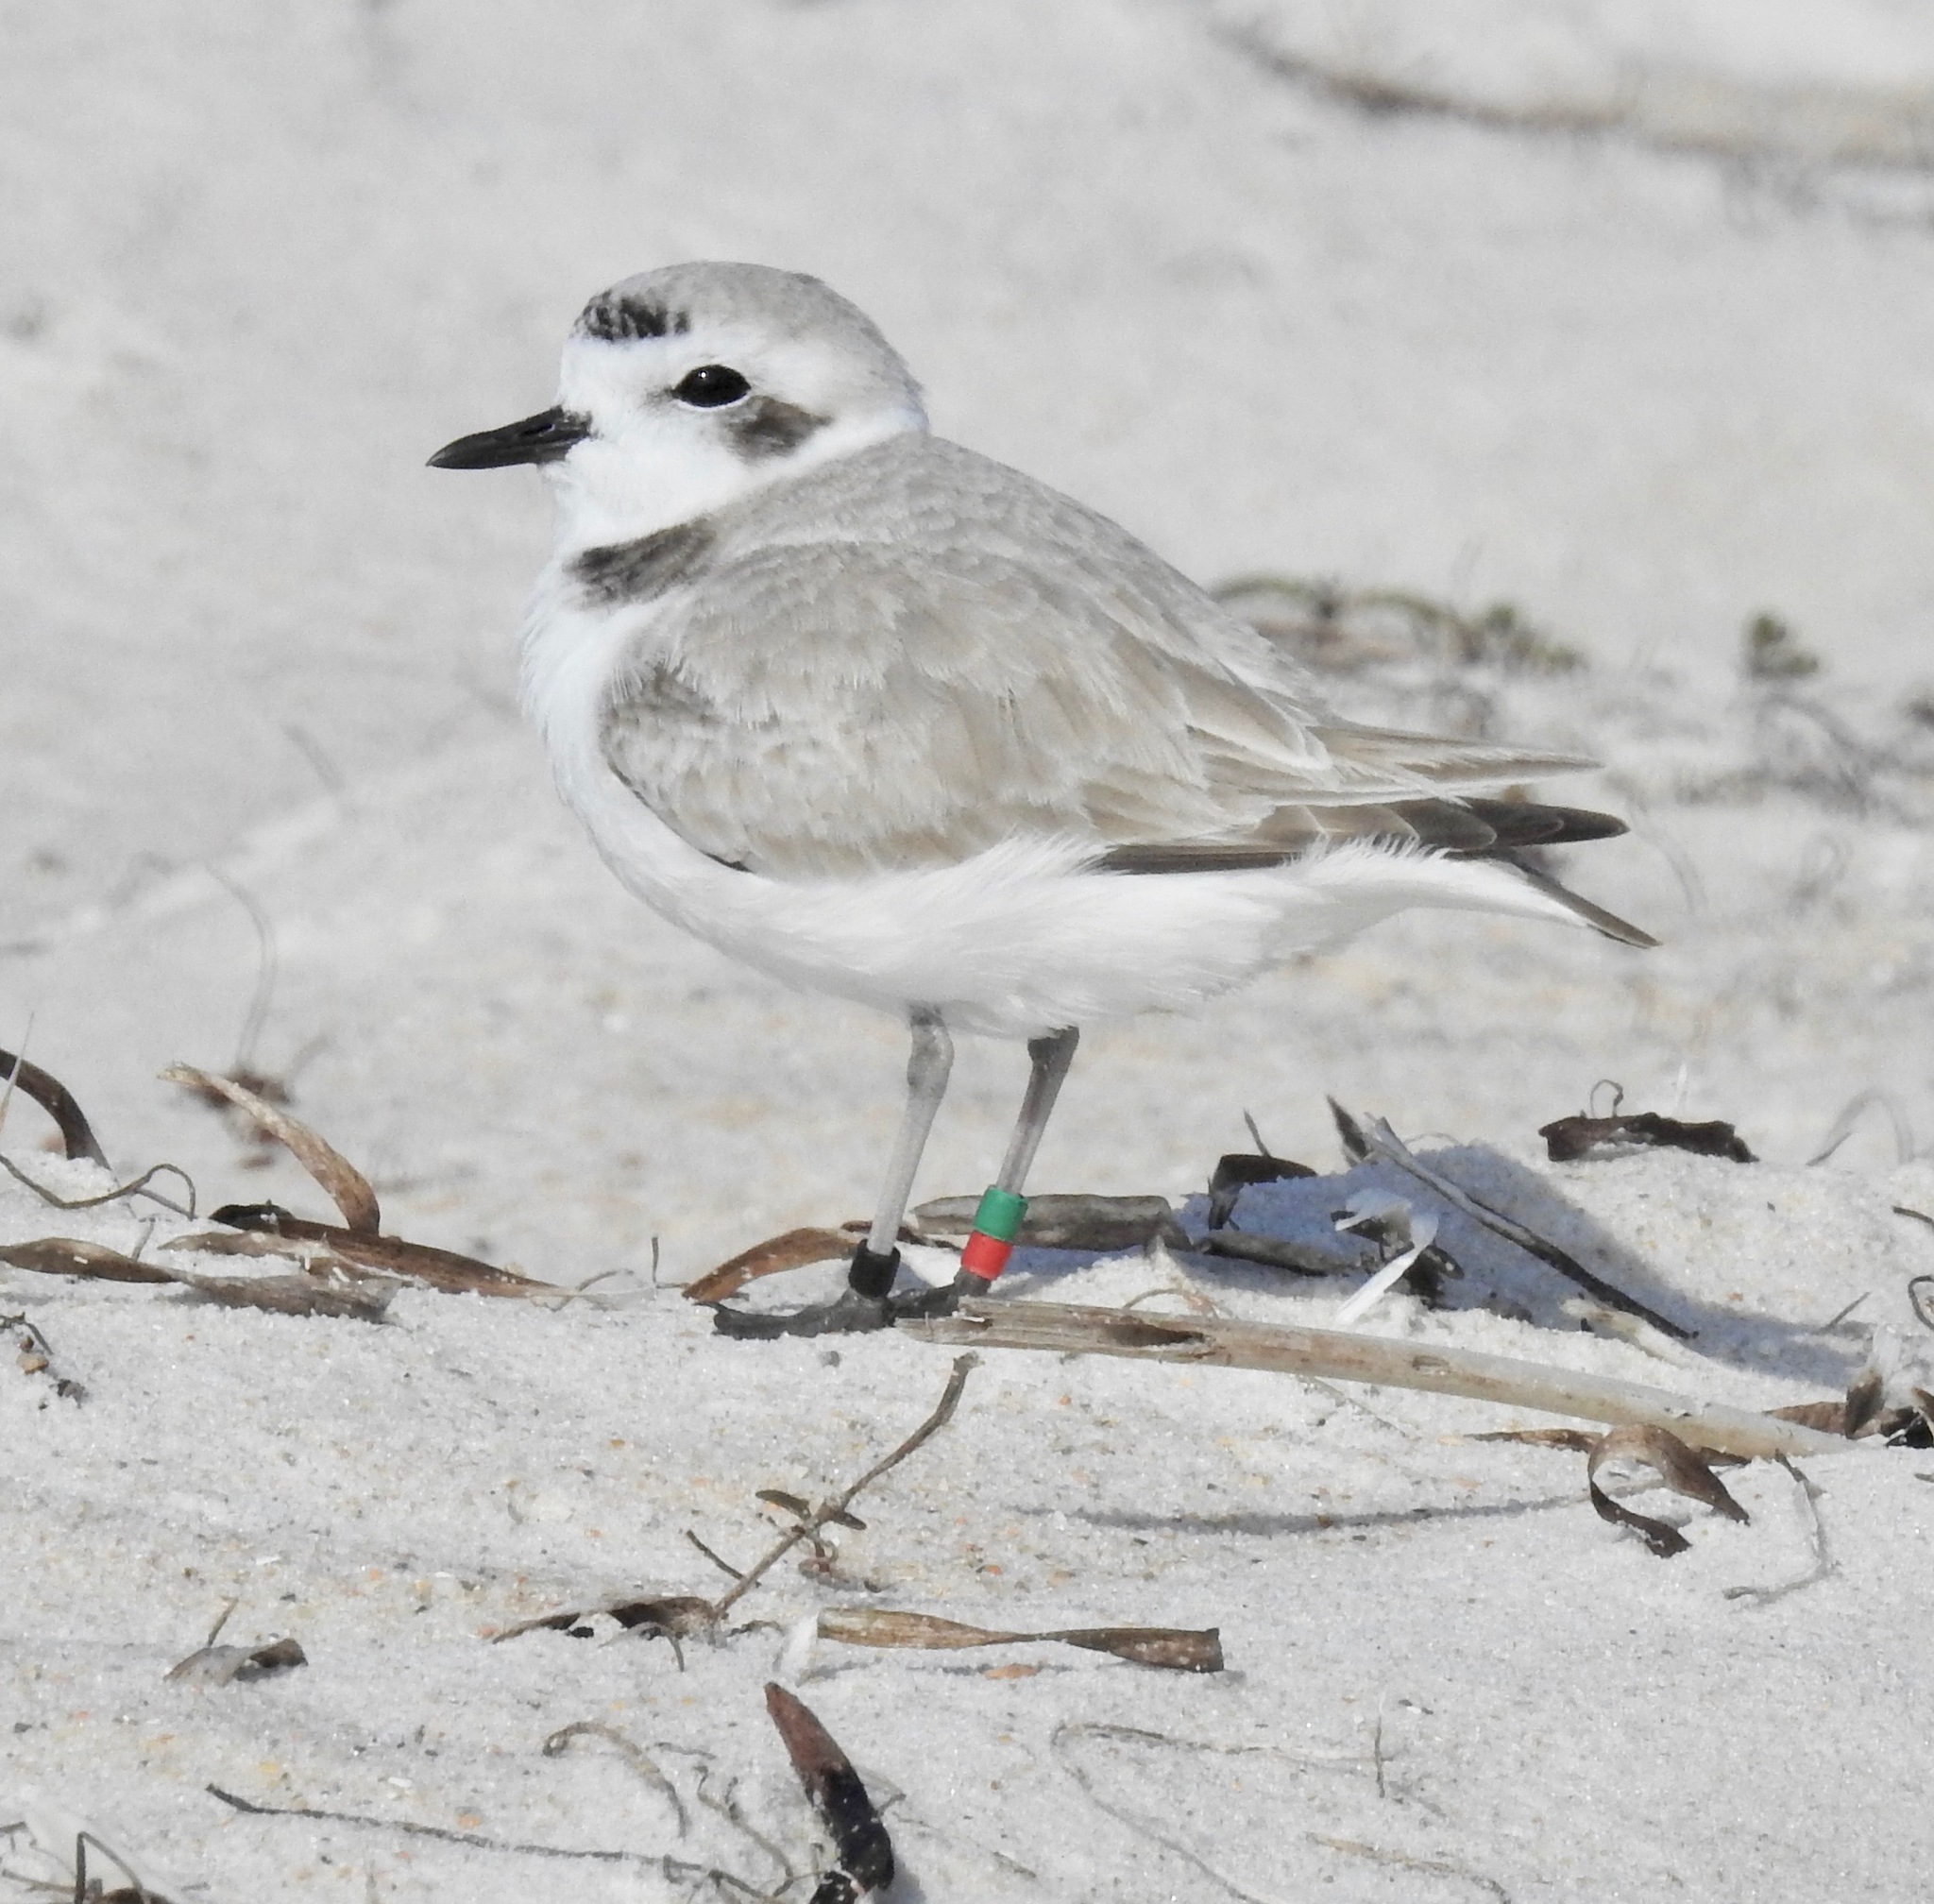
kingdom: Animalia
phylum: Chordata
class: Aves
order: Charadriiformes
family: Charadriidae
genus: Anarhynchus
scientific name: Anarhynchus
